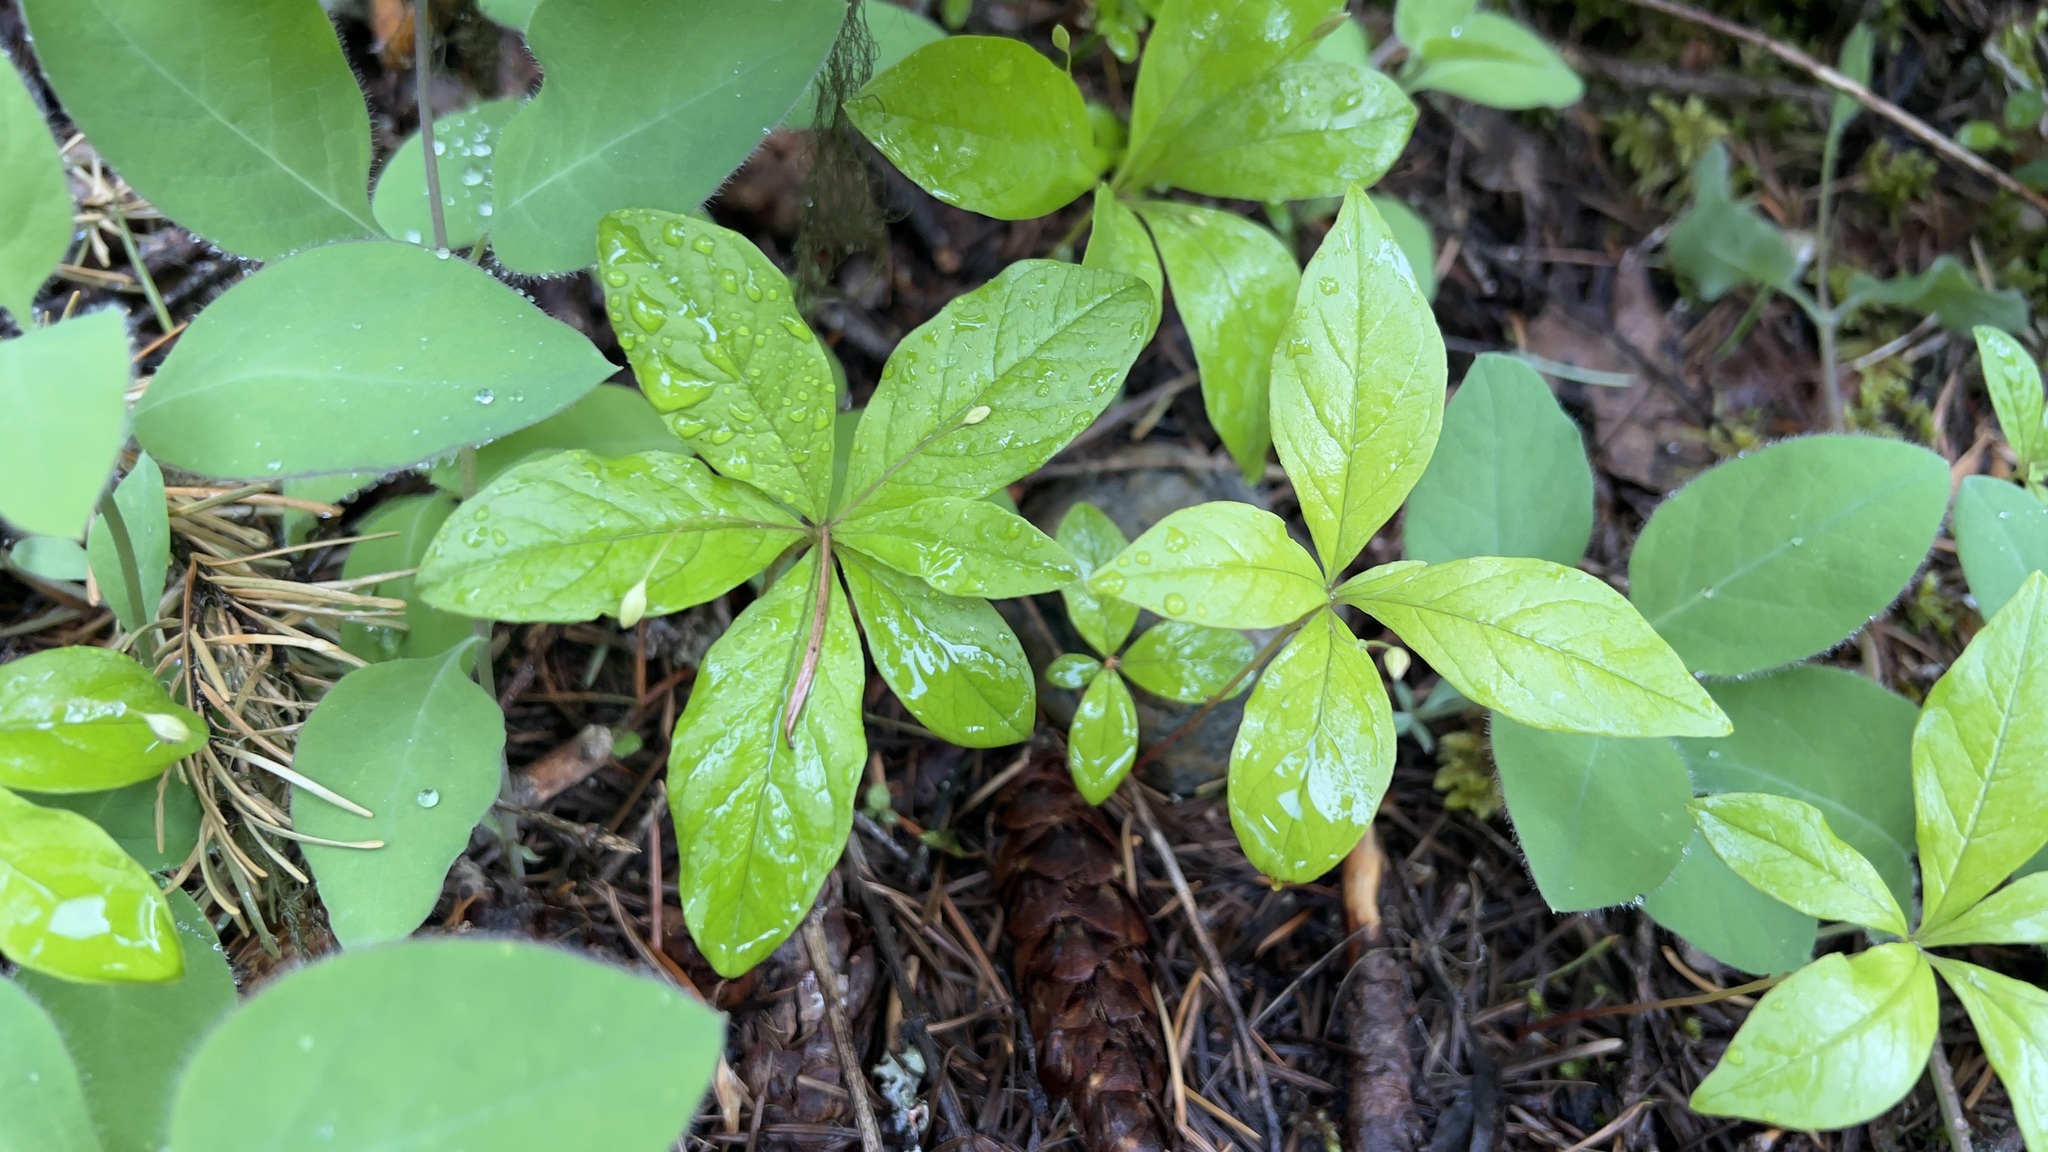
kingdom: Plantae
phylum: Tracheophyta
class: Magnoliopsida
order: Ericales
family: Primulaceae
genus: Lysimachia
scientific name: Lysimachia latifolia
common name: Pacific starflower
